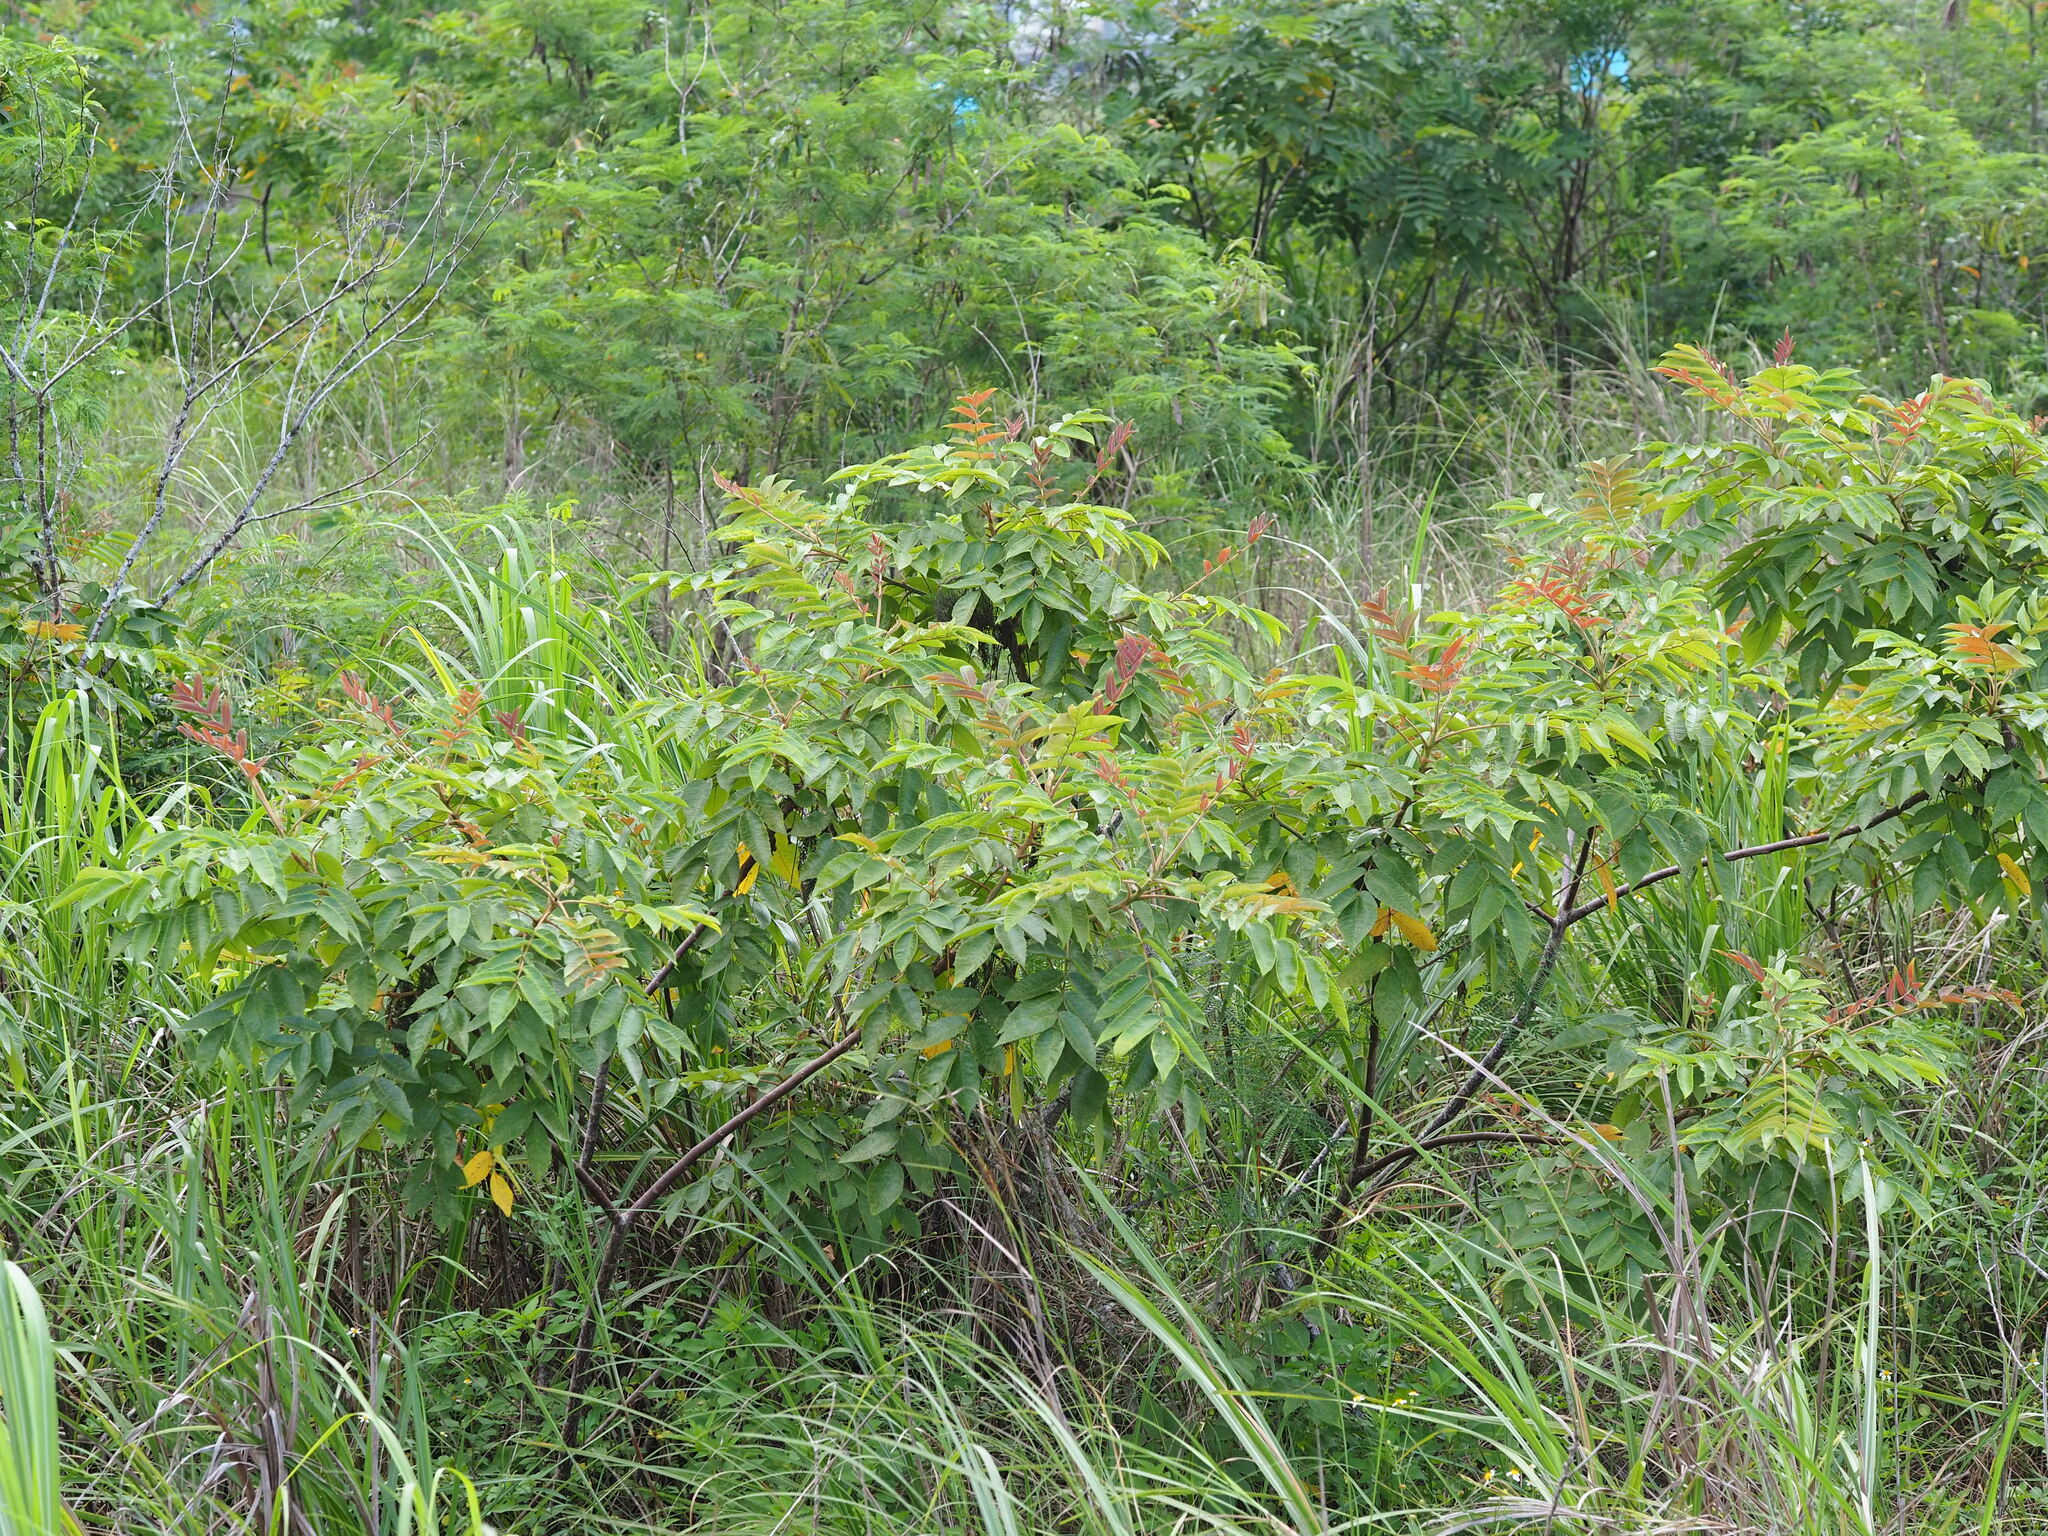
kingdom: Plantae
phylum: Tracheophyta
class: Magnoliopsida
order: Sapindales
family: Anacardiaceae
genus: Rhus
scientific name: Rhus chinensis
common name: Chinese gall
